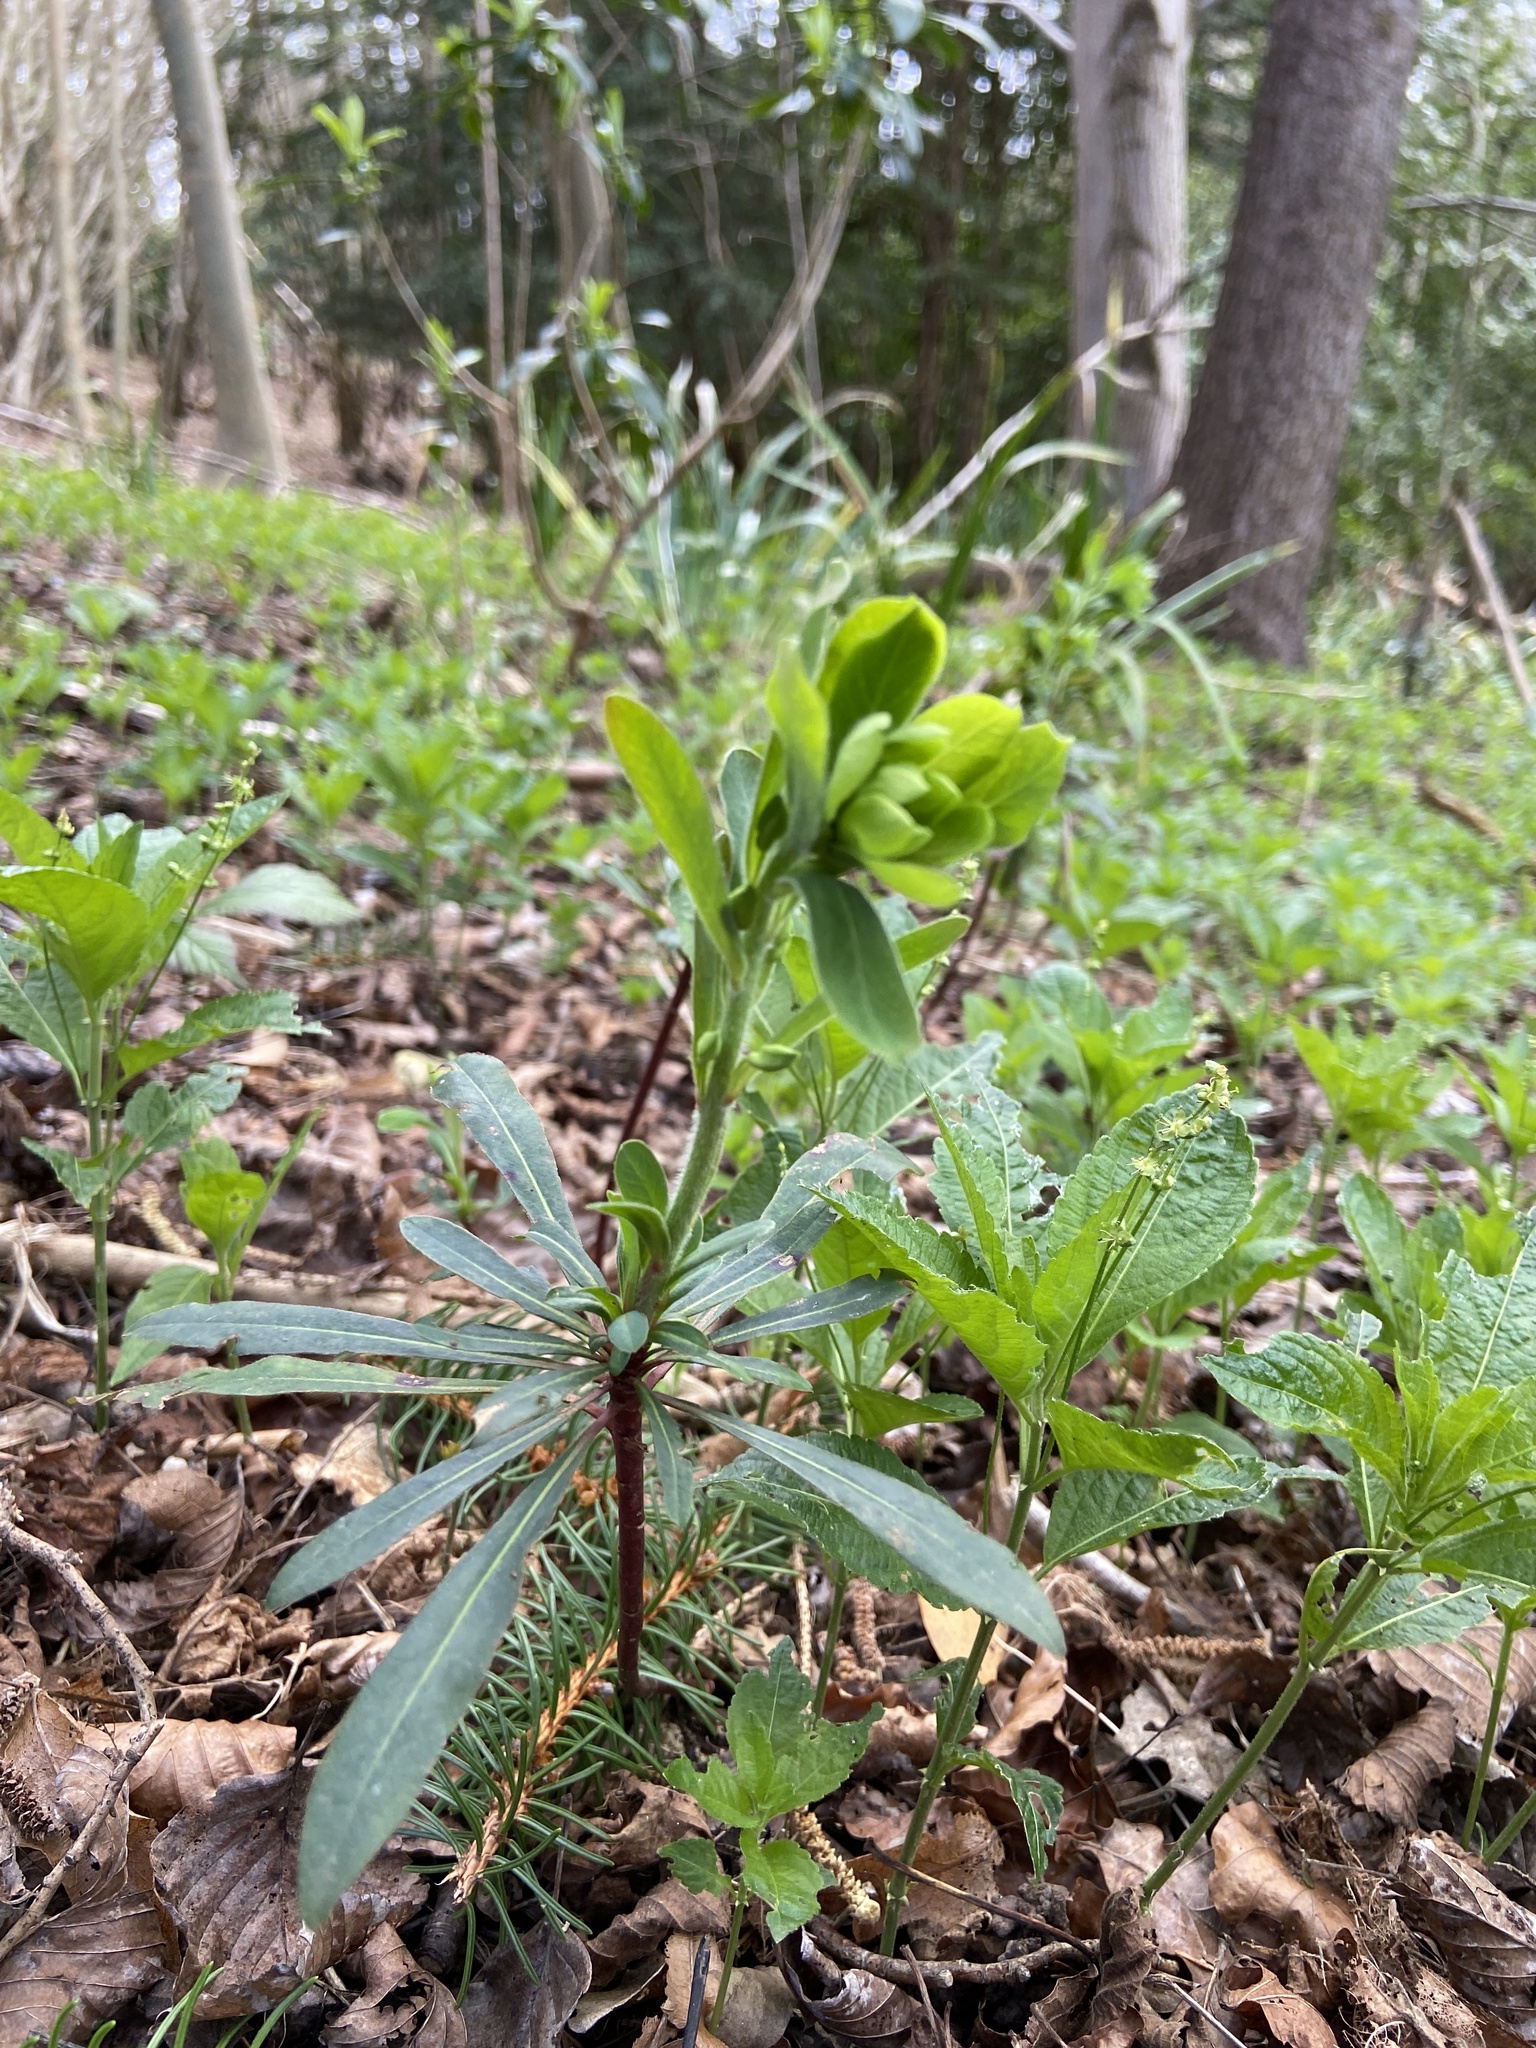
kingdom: Plantae
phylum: Tracheophyta
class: Magnoliopsida
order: Malpighiales
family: Euphorbiaceae
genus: Euphorbia
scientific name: Euphorbia amygdaloides
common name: Wood spurge
